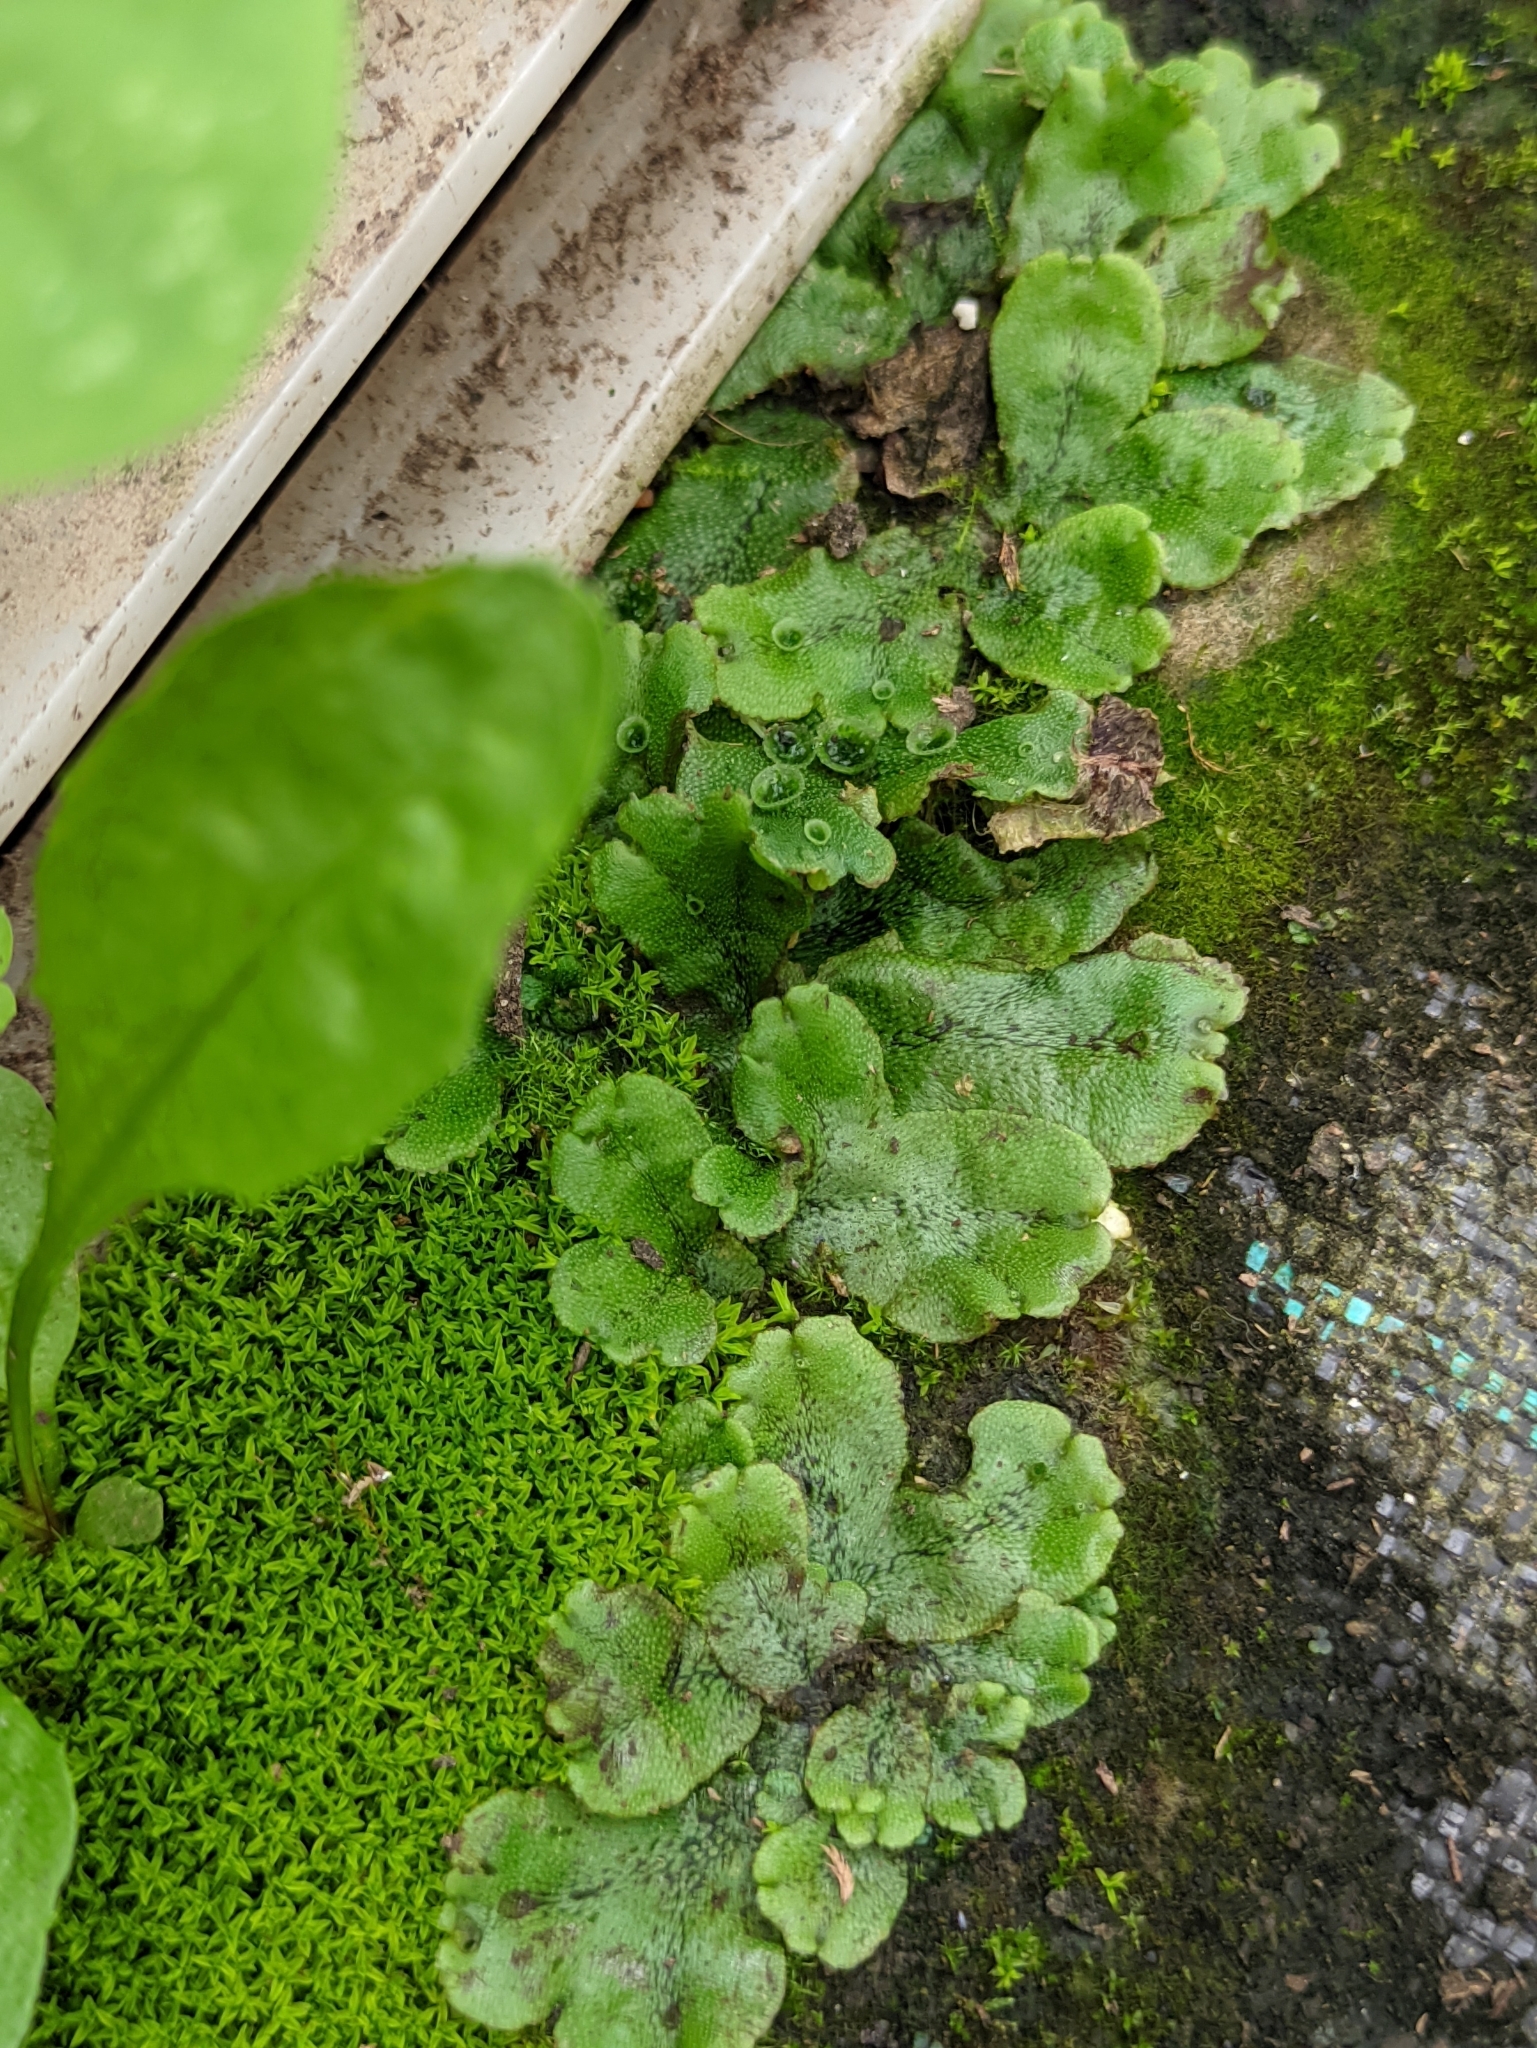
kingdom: Plantae
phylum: Marchantiophyta
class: Marchantiopsida
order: Marchantiales
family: Marchantiaceae
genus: Marchantia
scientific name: Marchantia polymorpha
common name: Common liverwort
